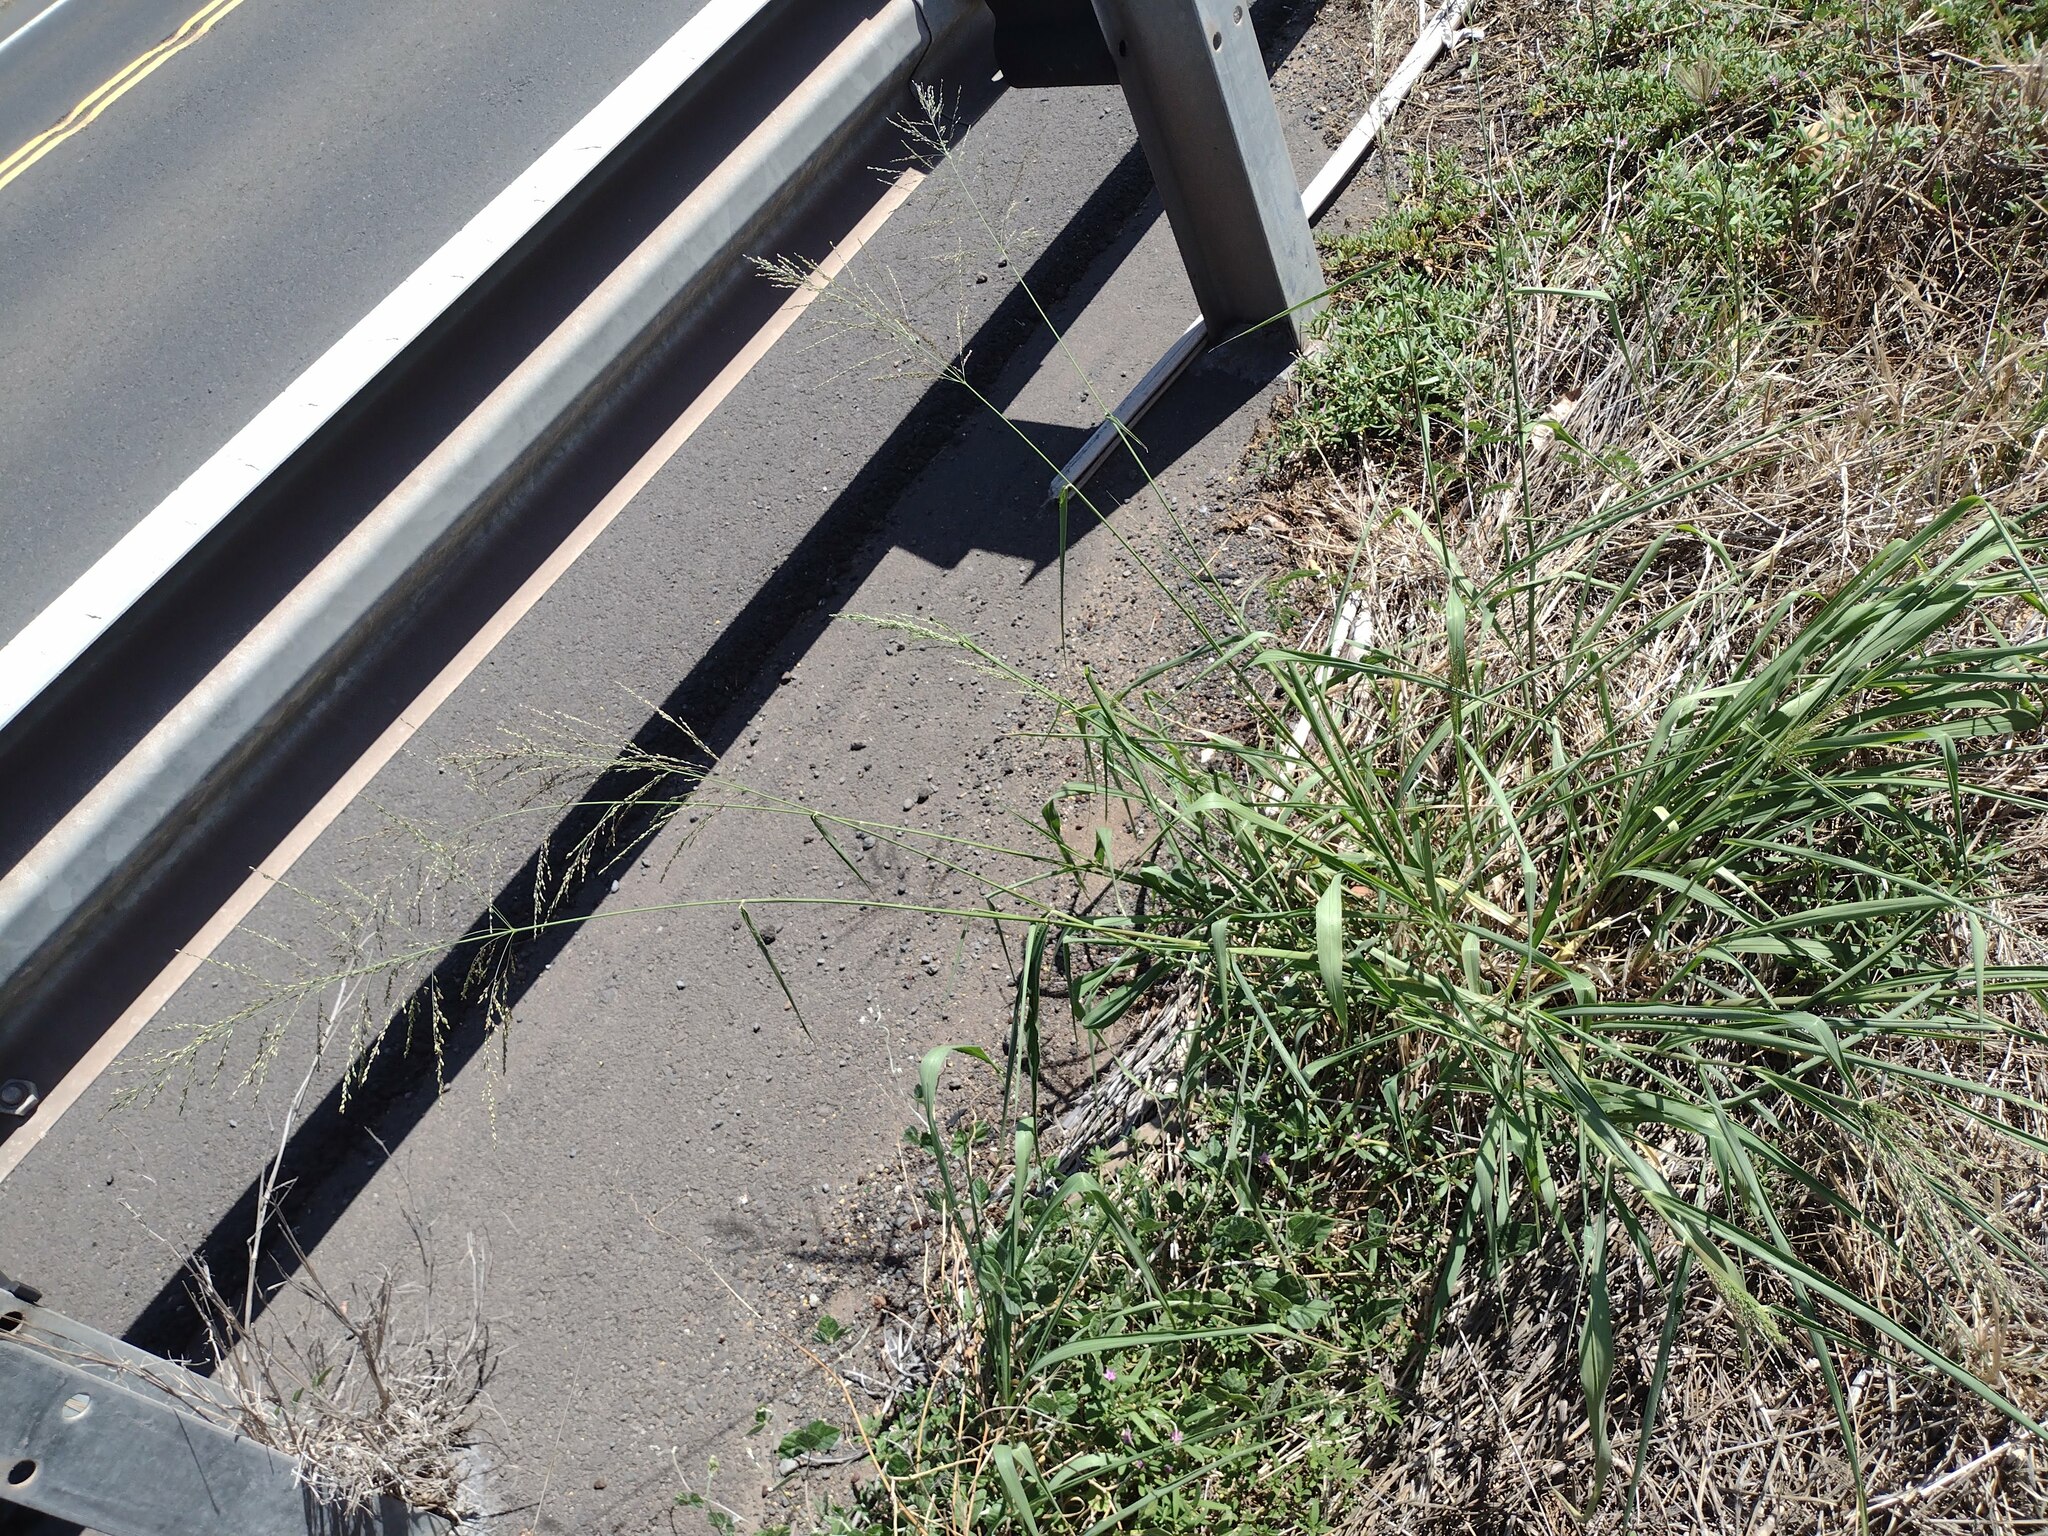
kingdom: Plantae
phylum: Tracheophyta
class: Liliopsida
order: Poales
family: Poaceae
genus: Megathyrsus
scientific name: Megathyrsus maximus
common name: Guineagrass
